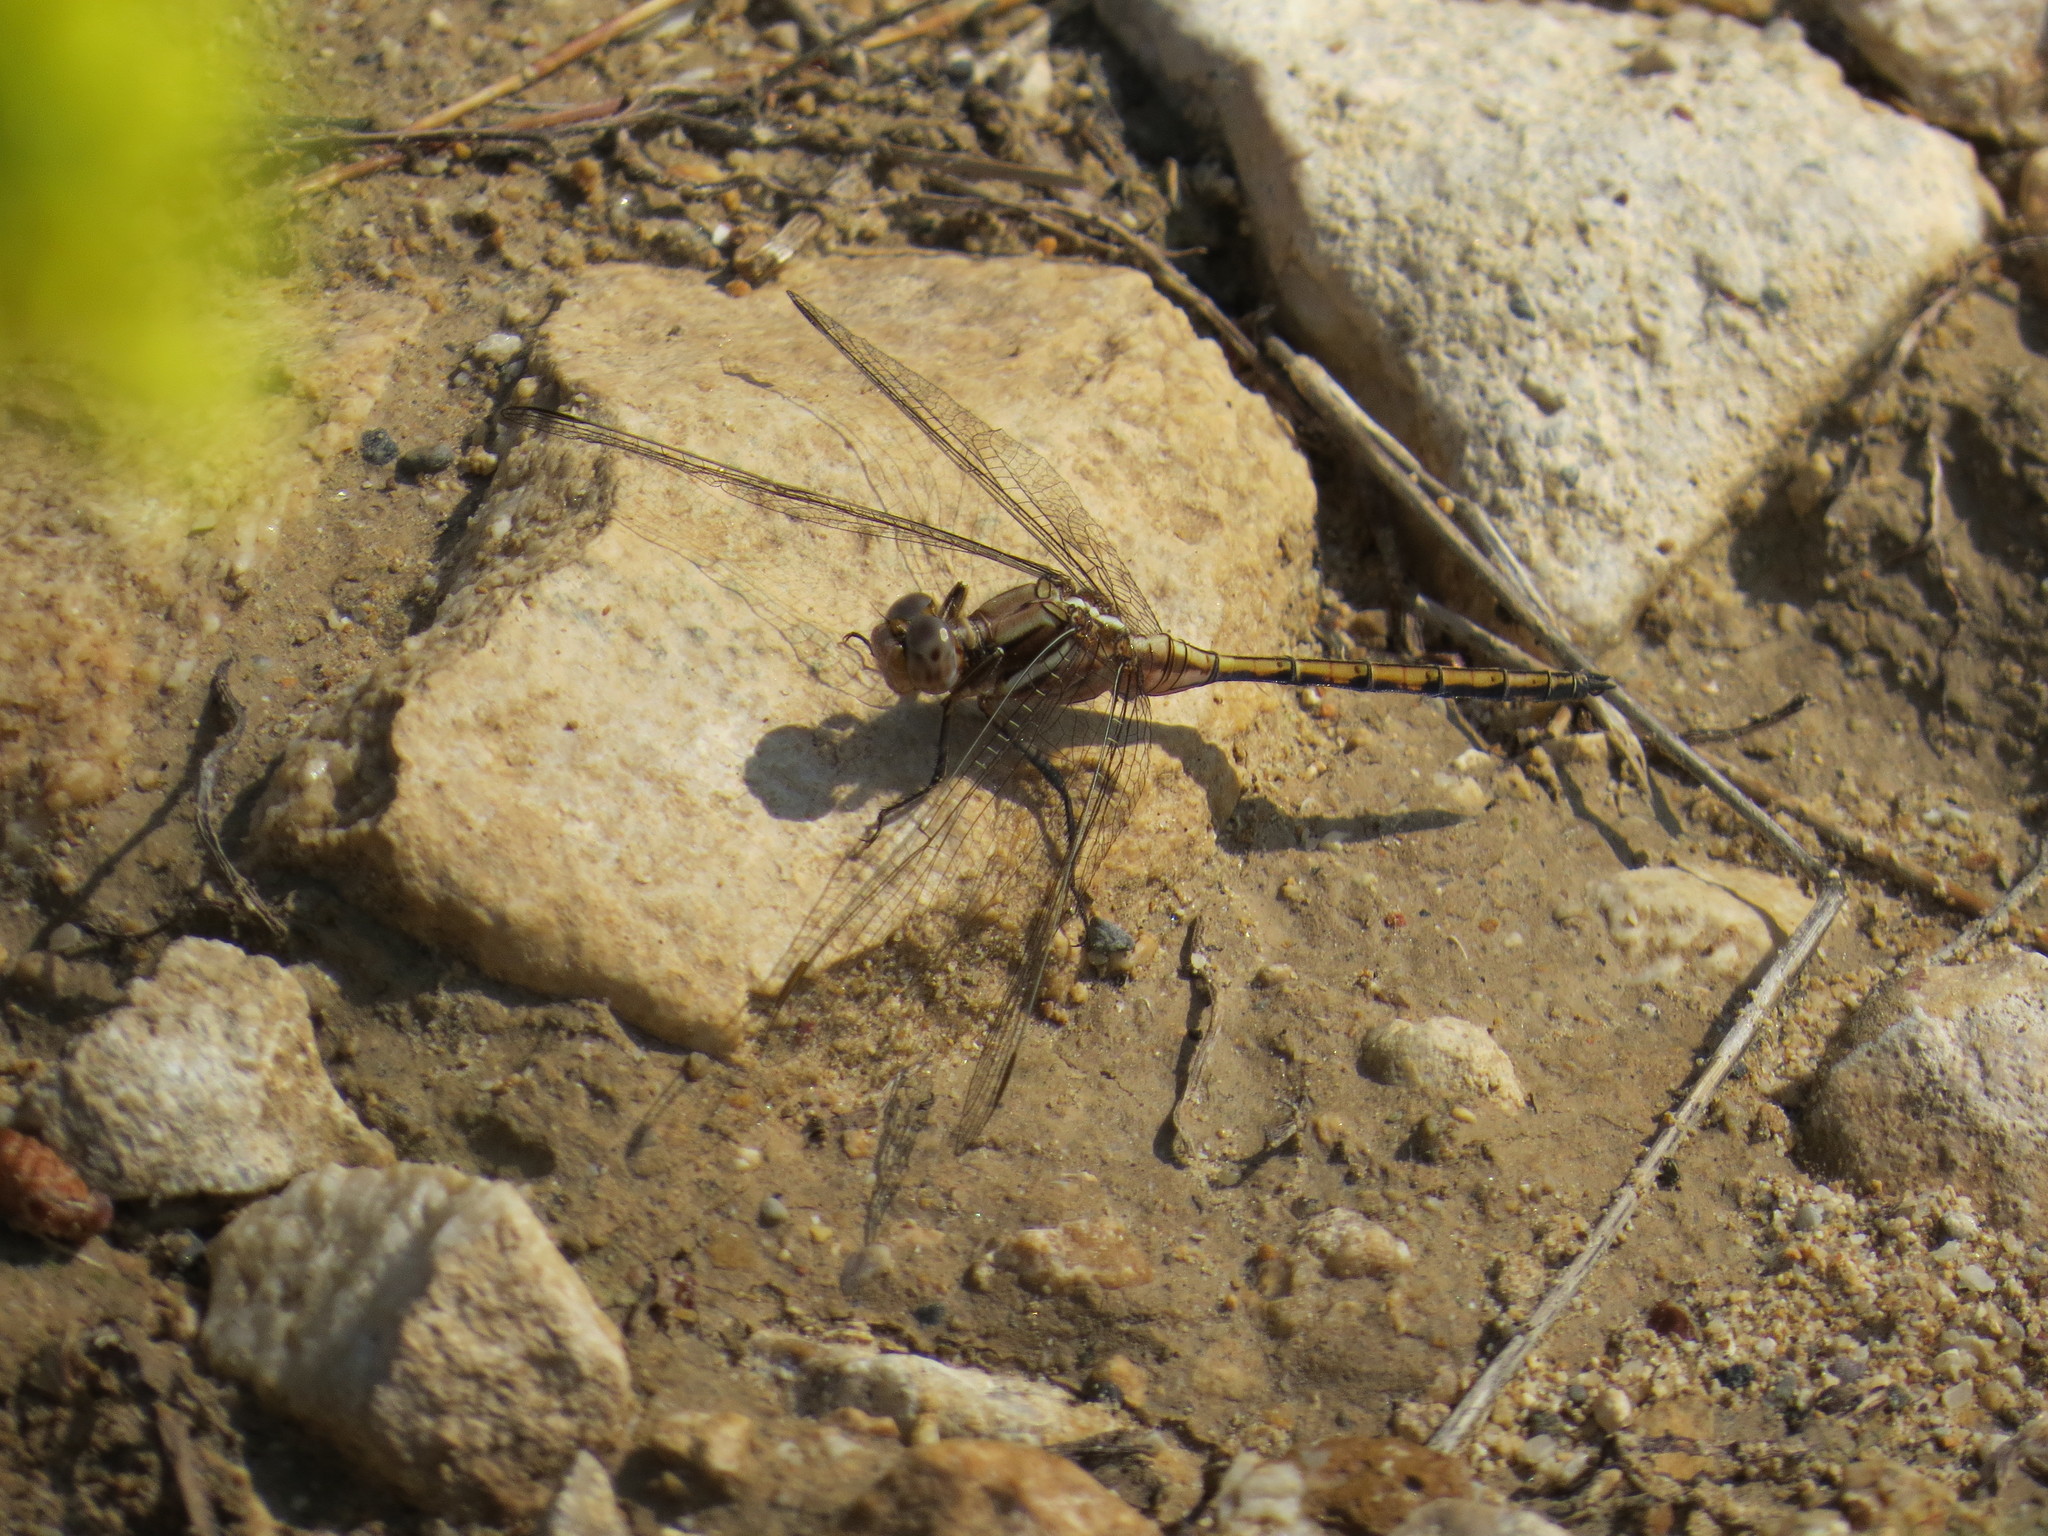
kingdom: Animalia
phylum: Arthropoda
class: Insecta
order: Odonata
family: Libellulidae
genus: Orthetrum
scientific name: Orthetrum chrysostigma
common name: Epaulet skimmer
